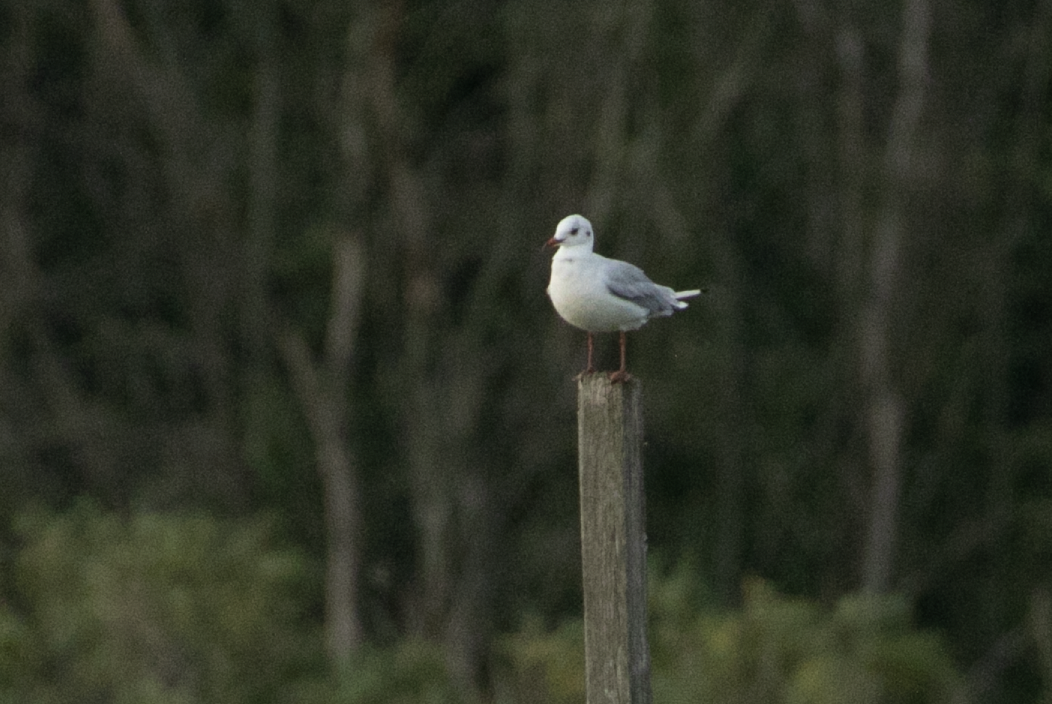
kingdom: Animalia
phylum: Chordata
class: Aves
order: Charadriiformes
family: Laridae
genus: Chroicocephalus
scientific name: Chroicocephalus ridibundus
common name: Black-headed gull
